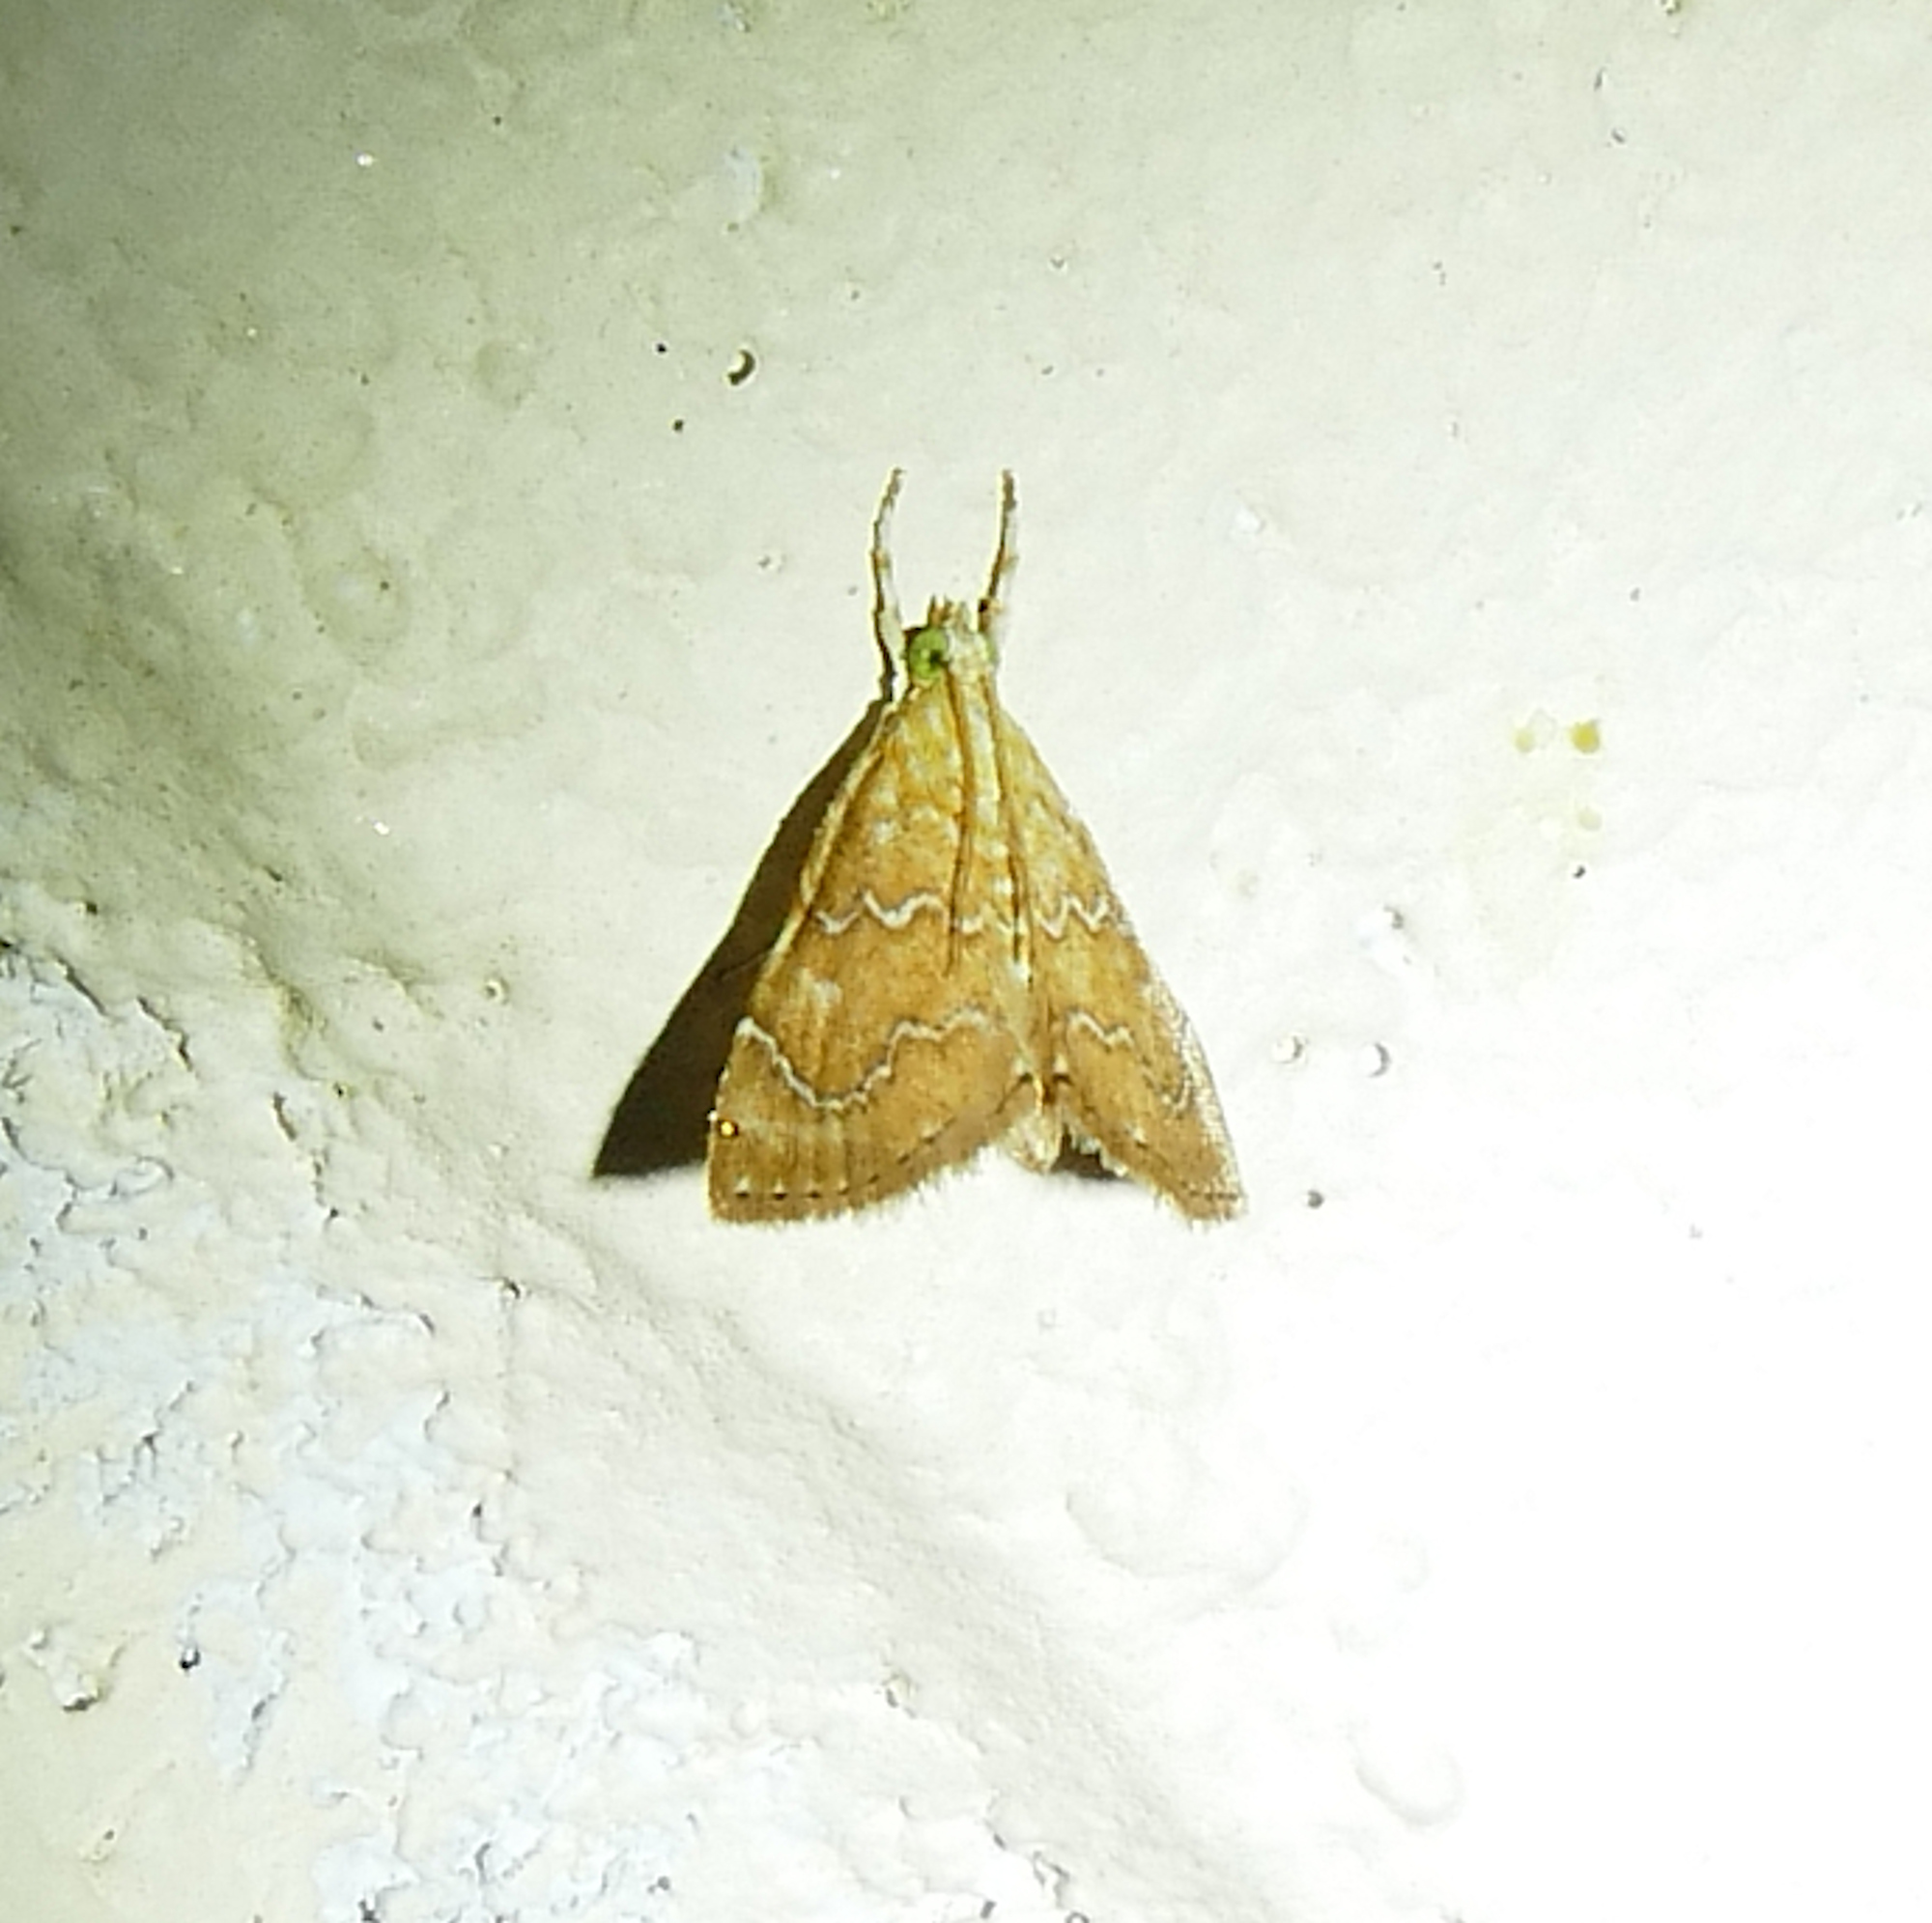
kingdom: Animalia
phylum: Arthropoda
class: Insecta
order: Lepidoptera
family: Crambidae
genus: Glaphyria
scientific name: Glaphyria sesquistrialis
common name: White-roped glaphyria
